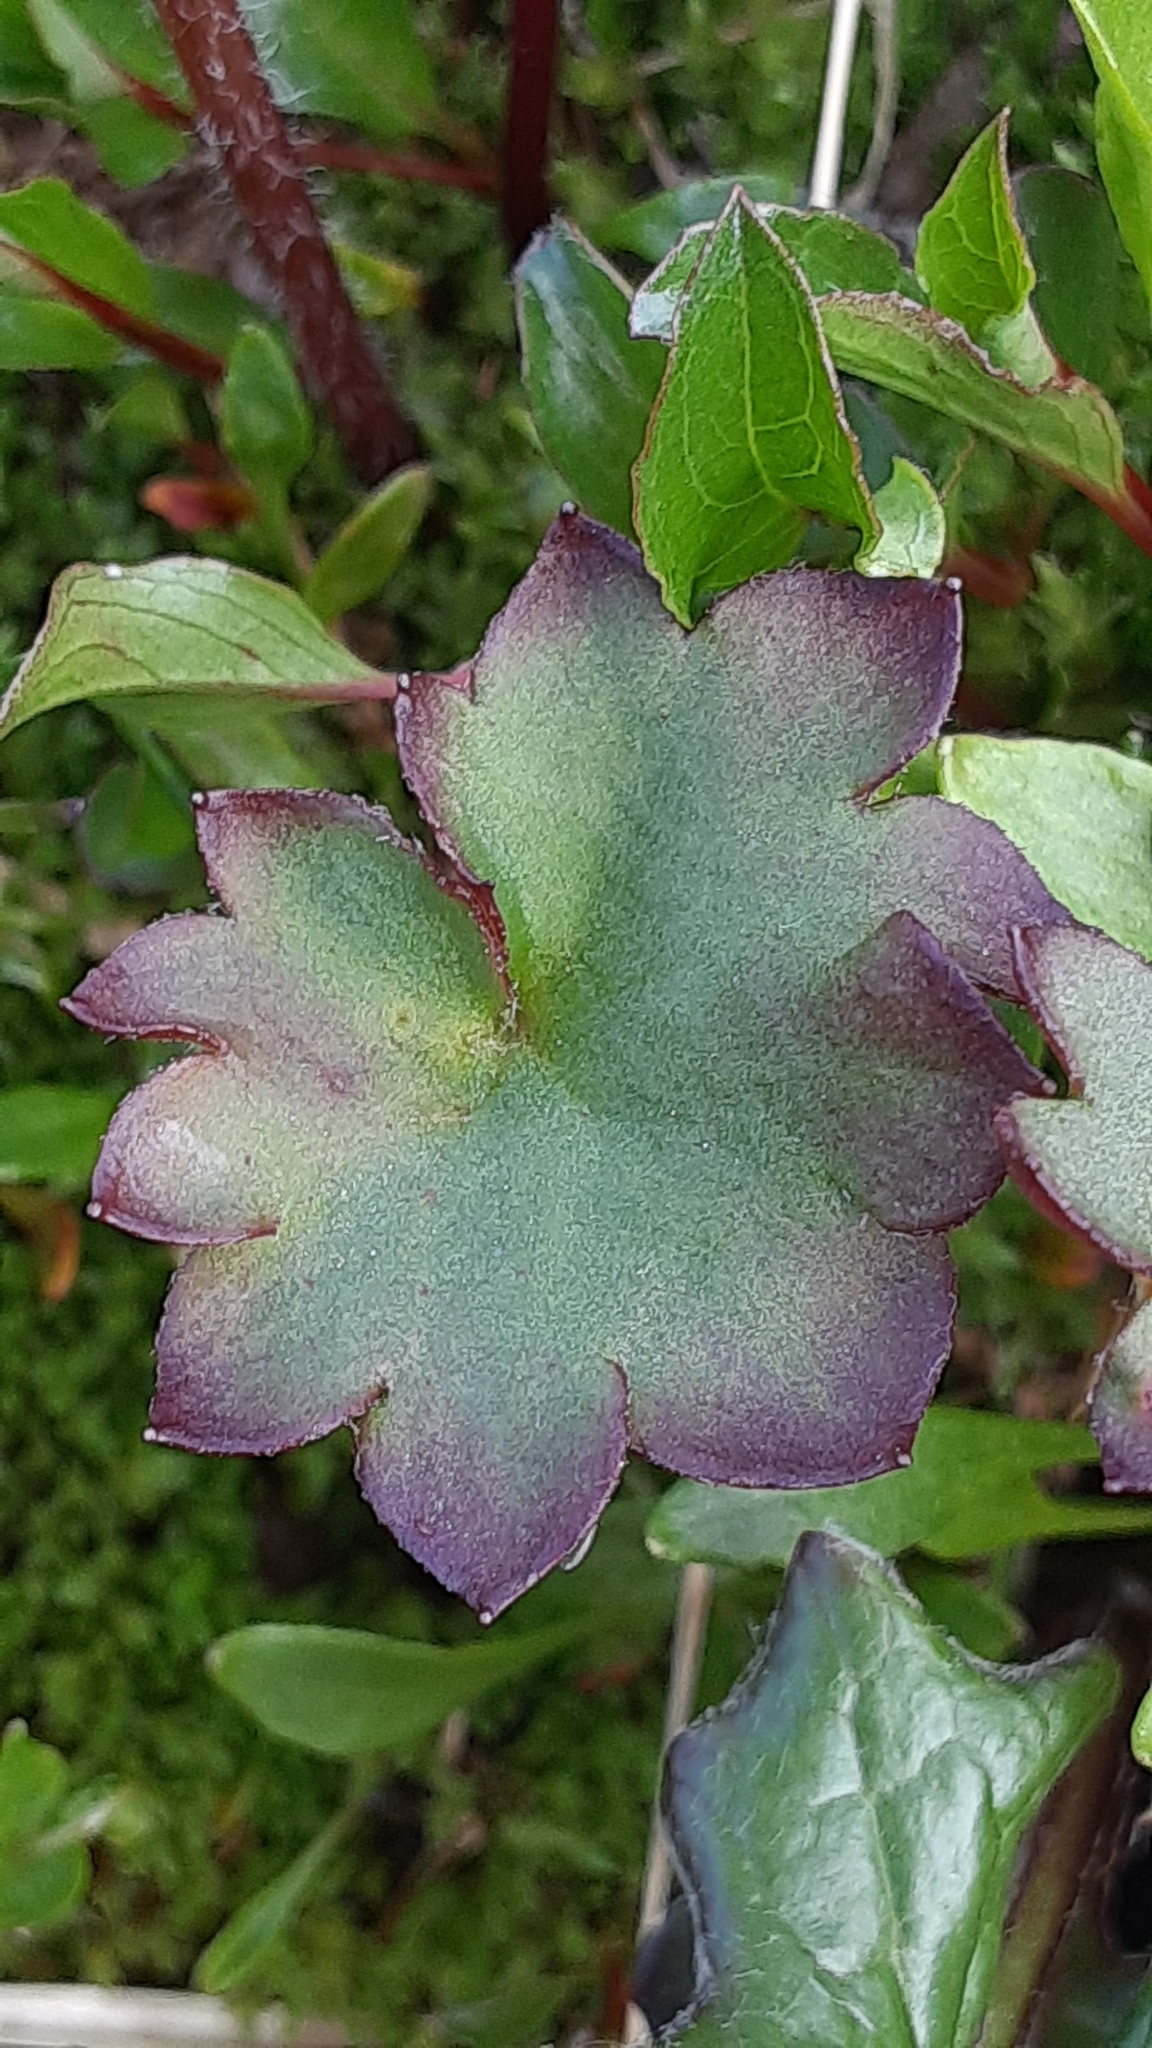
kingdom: Plantae
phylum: Tracheophyta
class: Magnoliopsida
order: Saxifragales
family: Saxifragaceae
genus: Micranthes
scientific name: Micranthes nelsoniana
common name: Nelson's saxifrage
